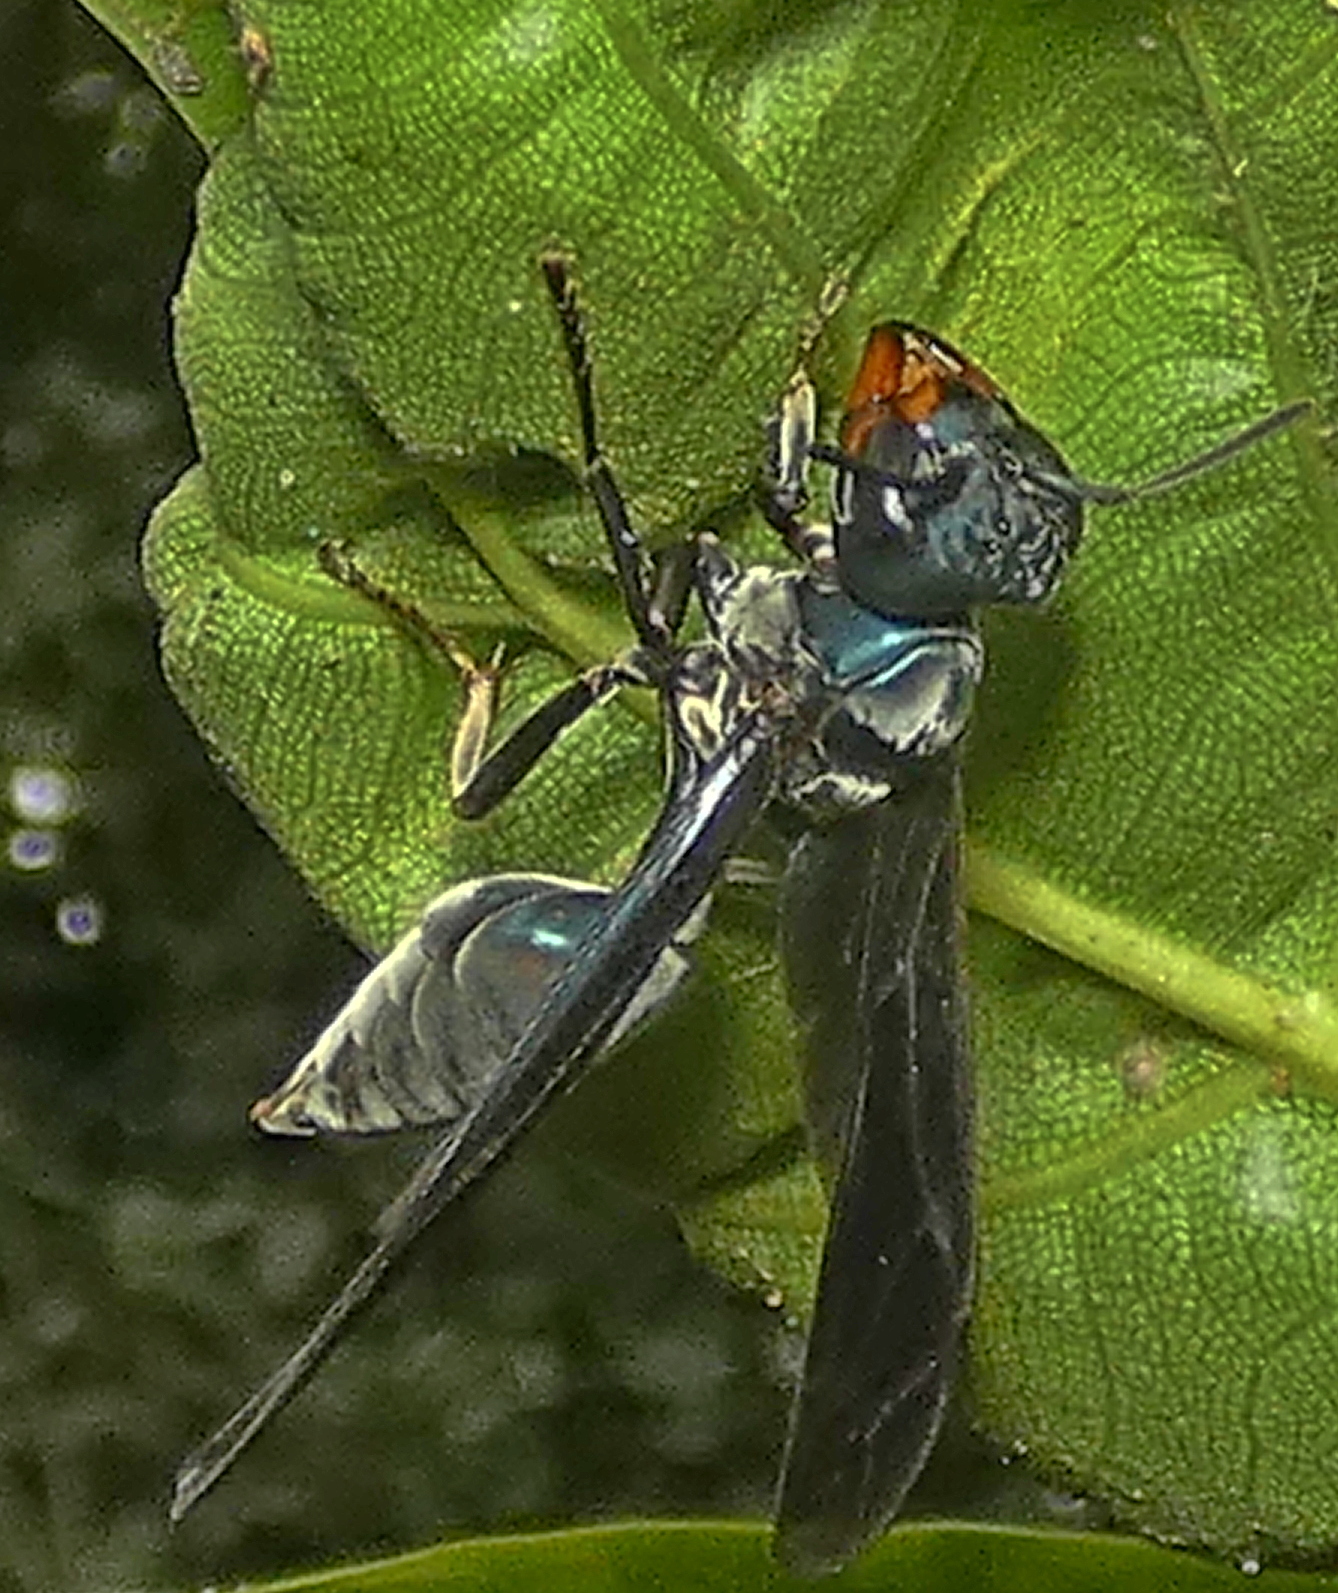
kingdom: Animalia
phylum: Arthropoda
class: Insecta
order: Hymenoptera
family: Vespidae
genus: Synoeca
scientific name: Synoeca ilheensis
